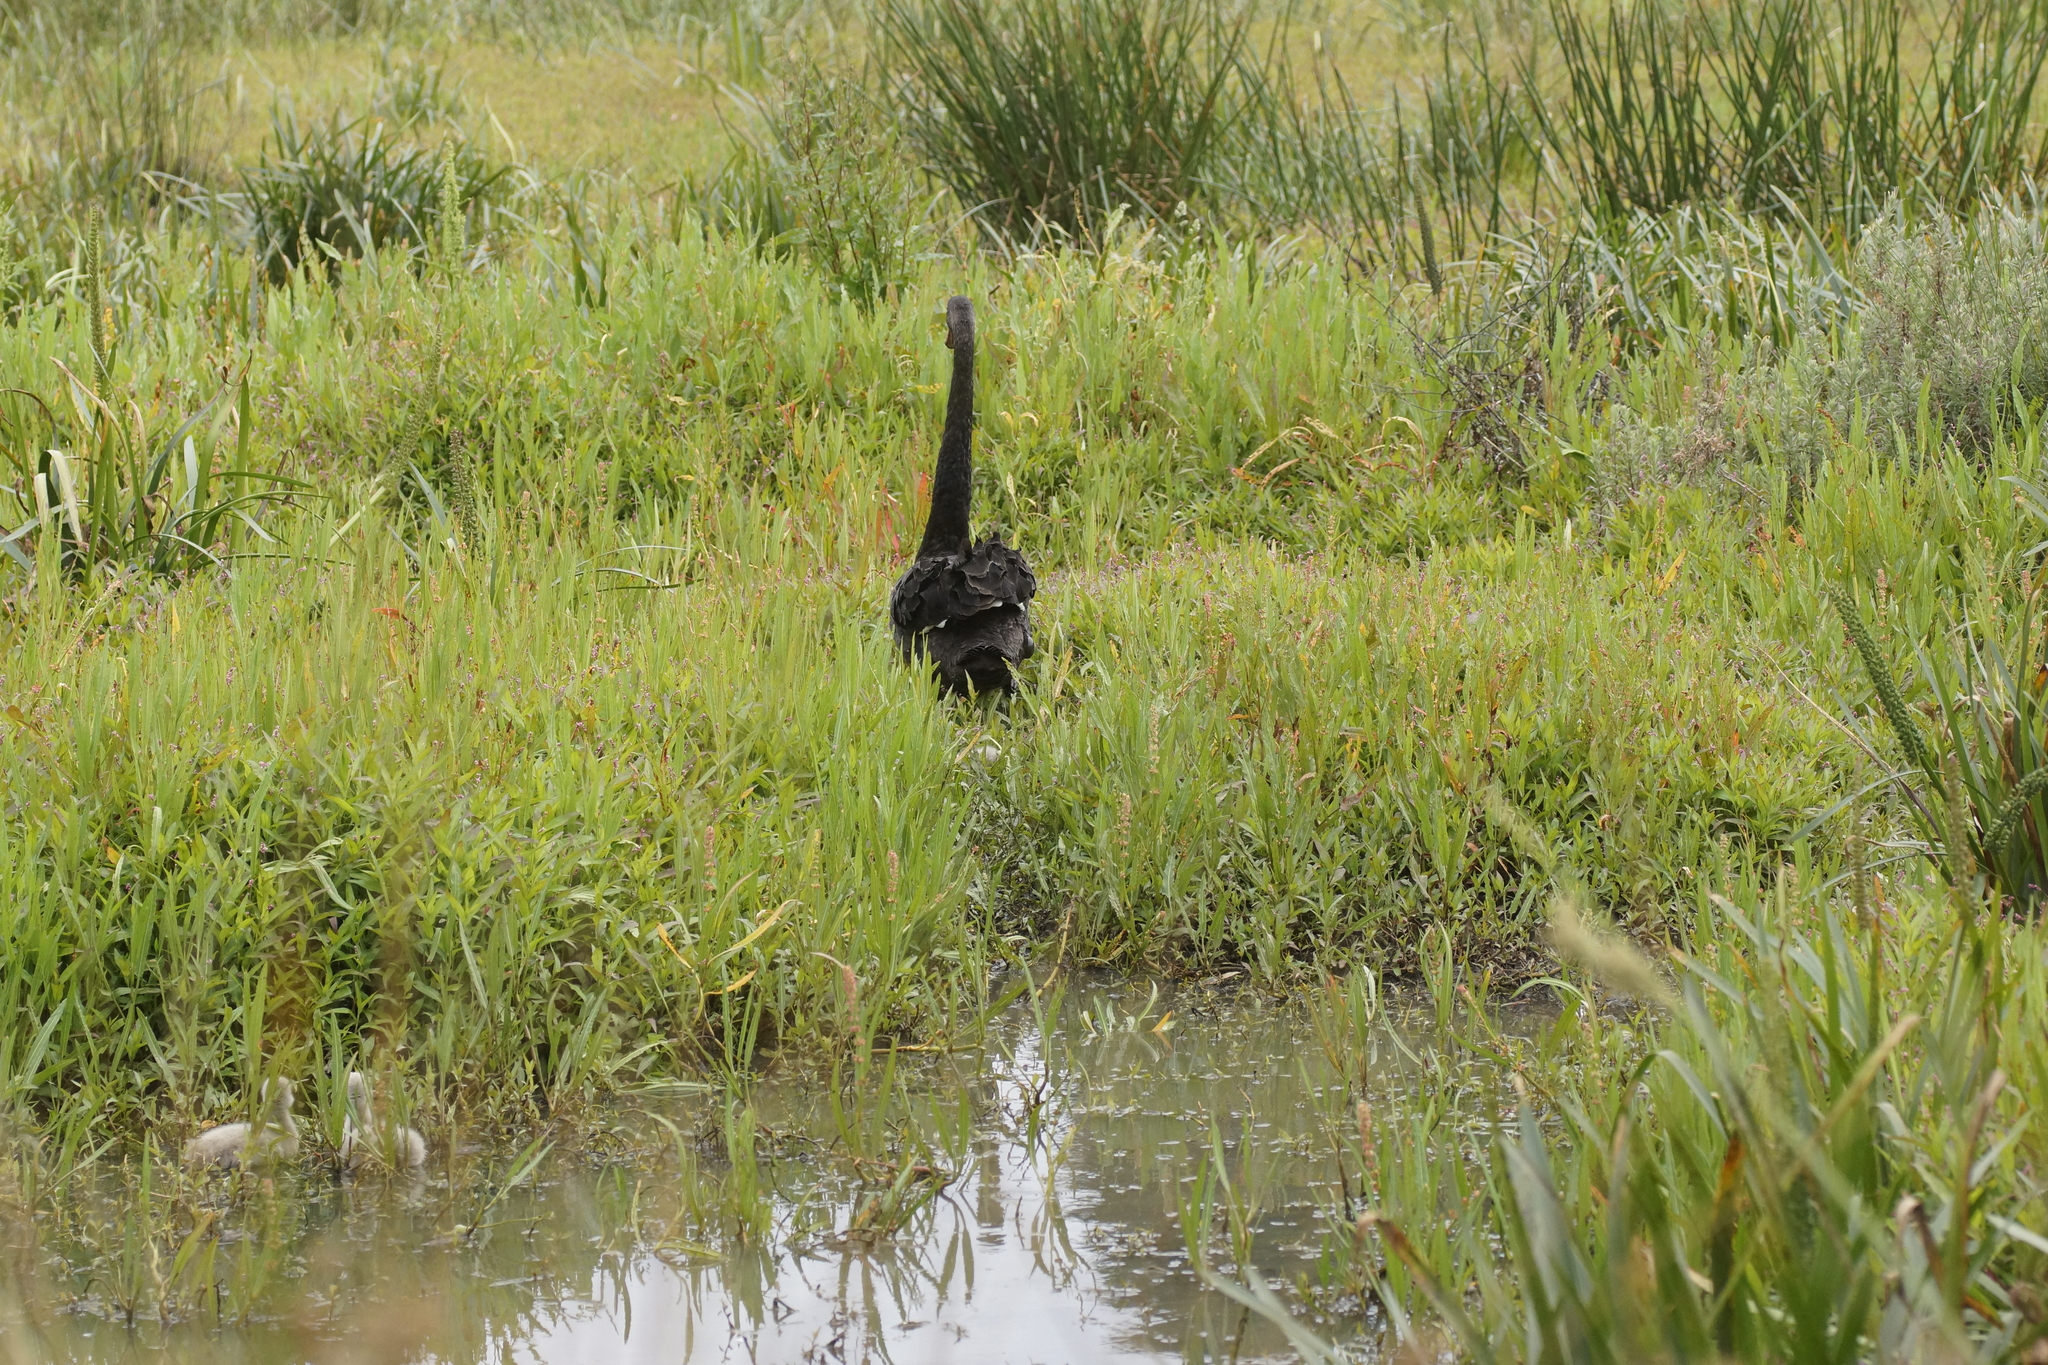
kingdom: Animalia
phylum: Chordata
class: Aves
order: Anseriformes
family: Anatidae
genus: Cygnus
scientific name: Cygnus atratus
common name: Black swan
